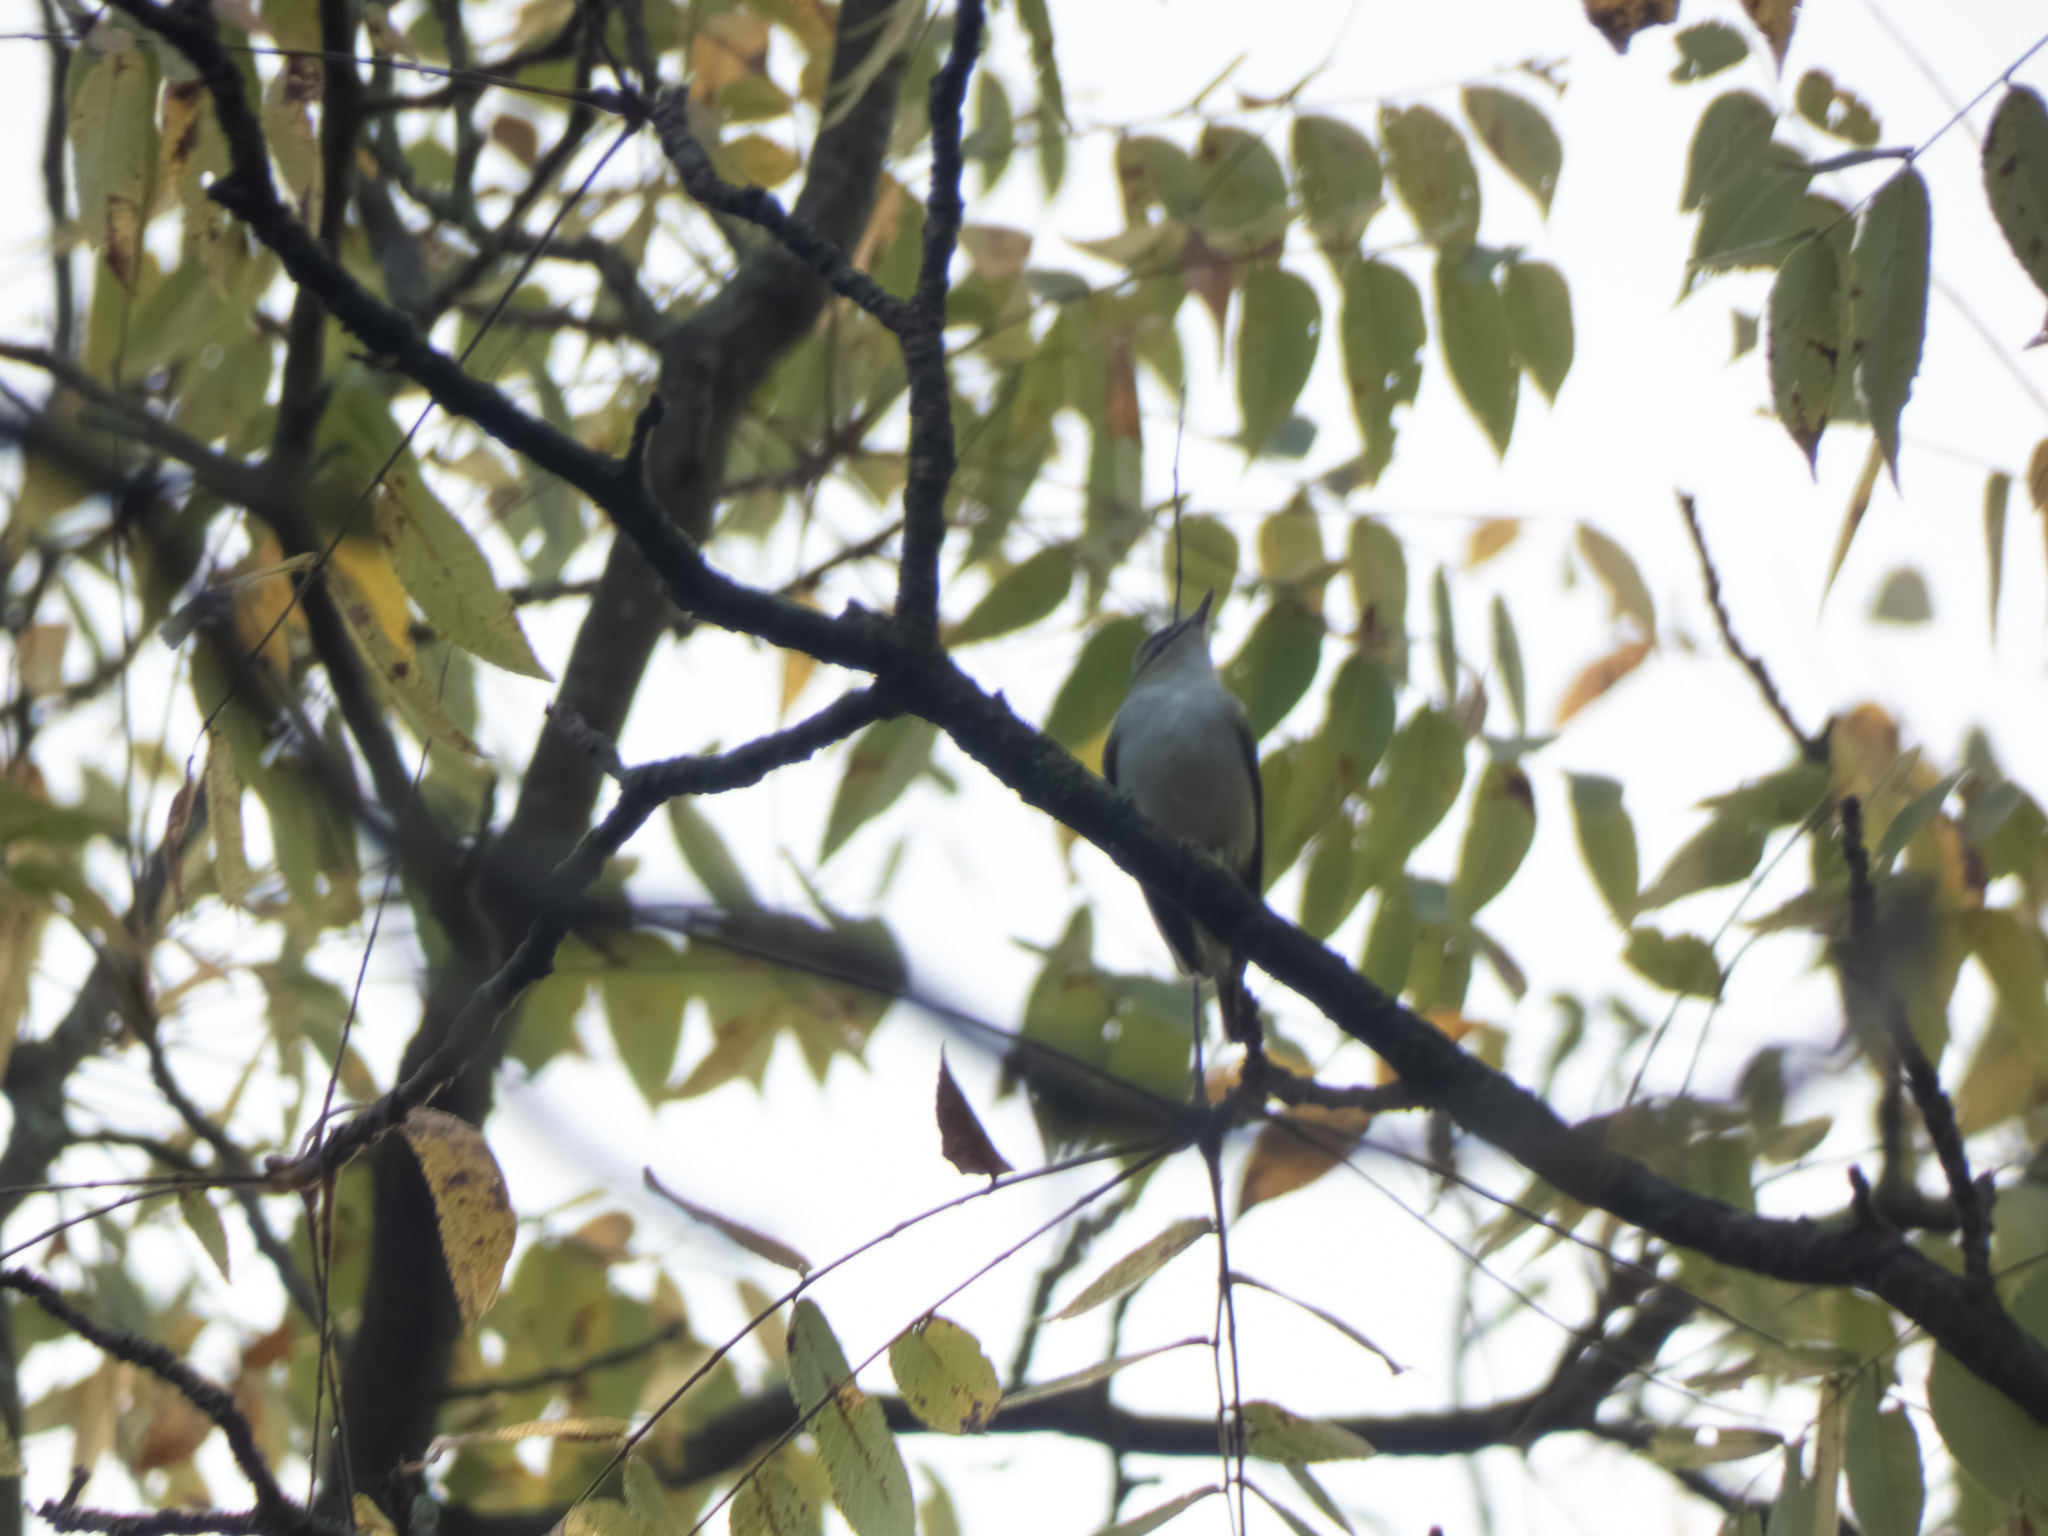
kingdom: Animalia
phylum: Chordata
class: Aves
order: Passeriformes
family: Vireonidae
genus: Vireo
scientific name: Vireo olivaceus
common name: Red-eyed vireo
